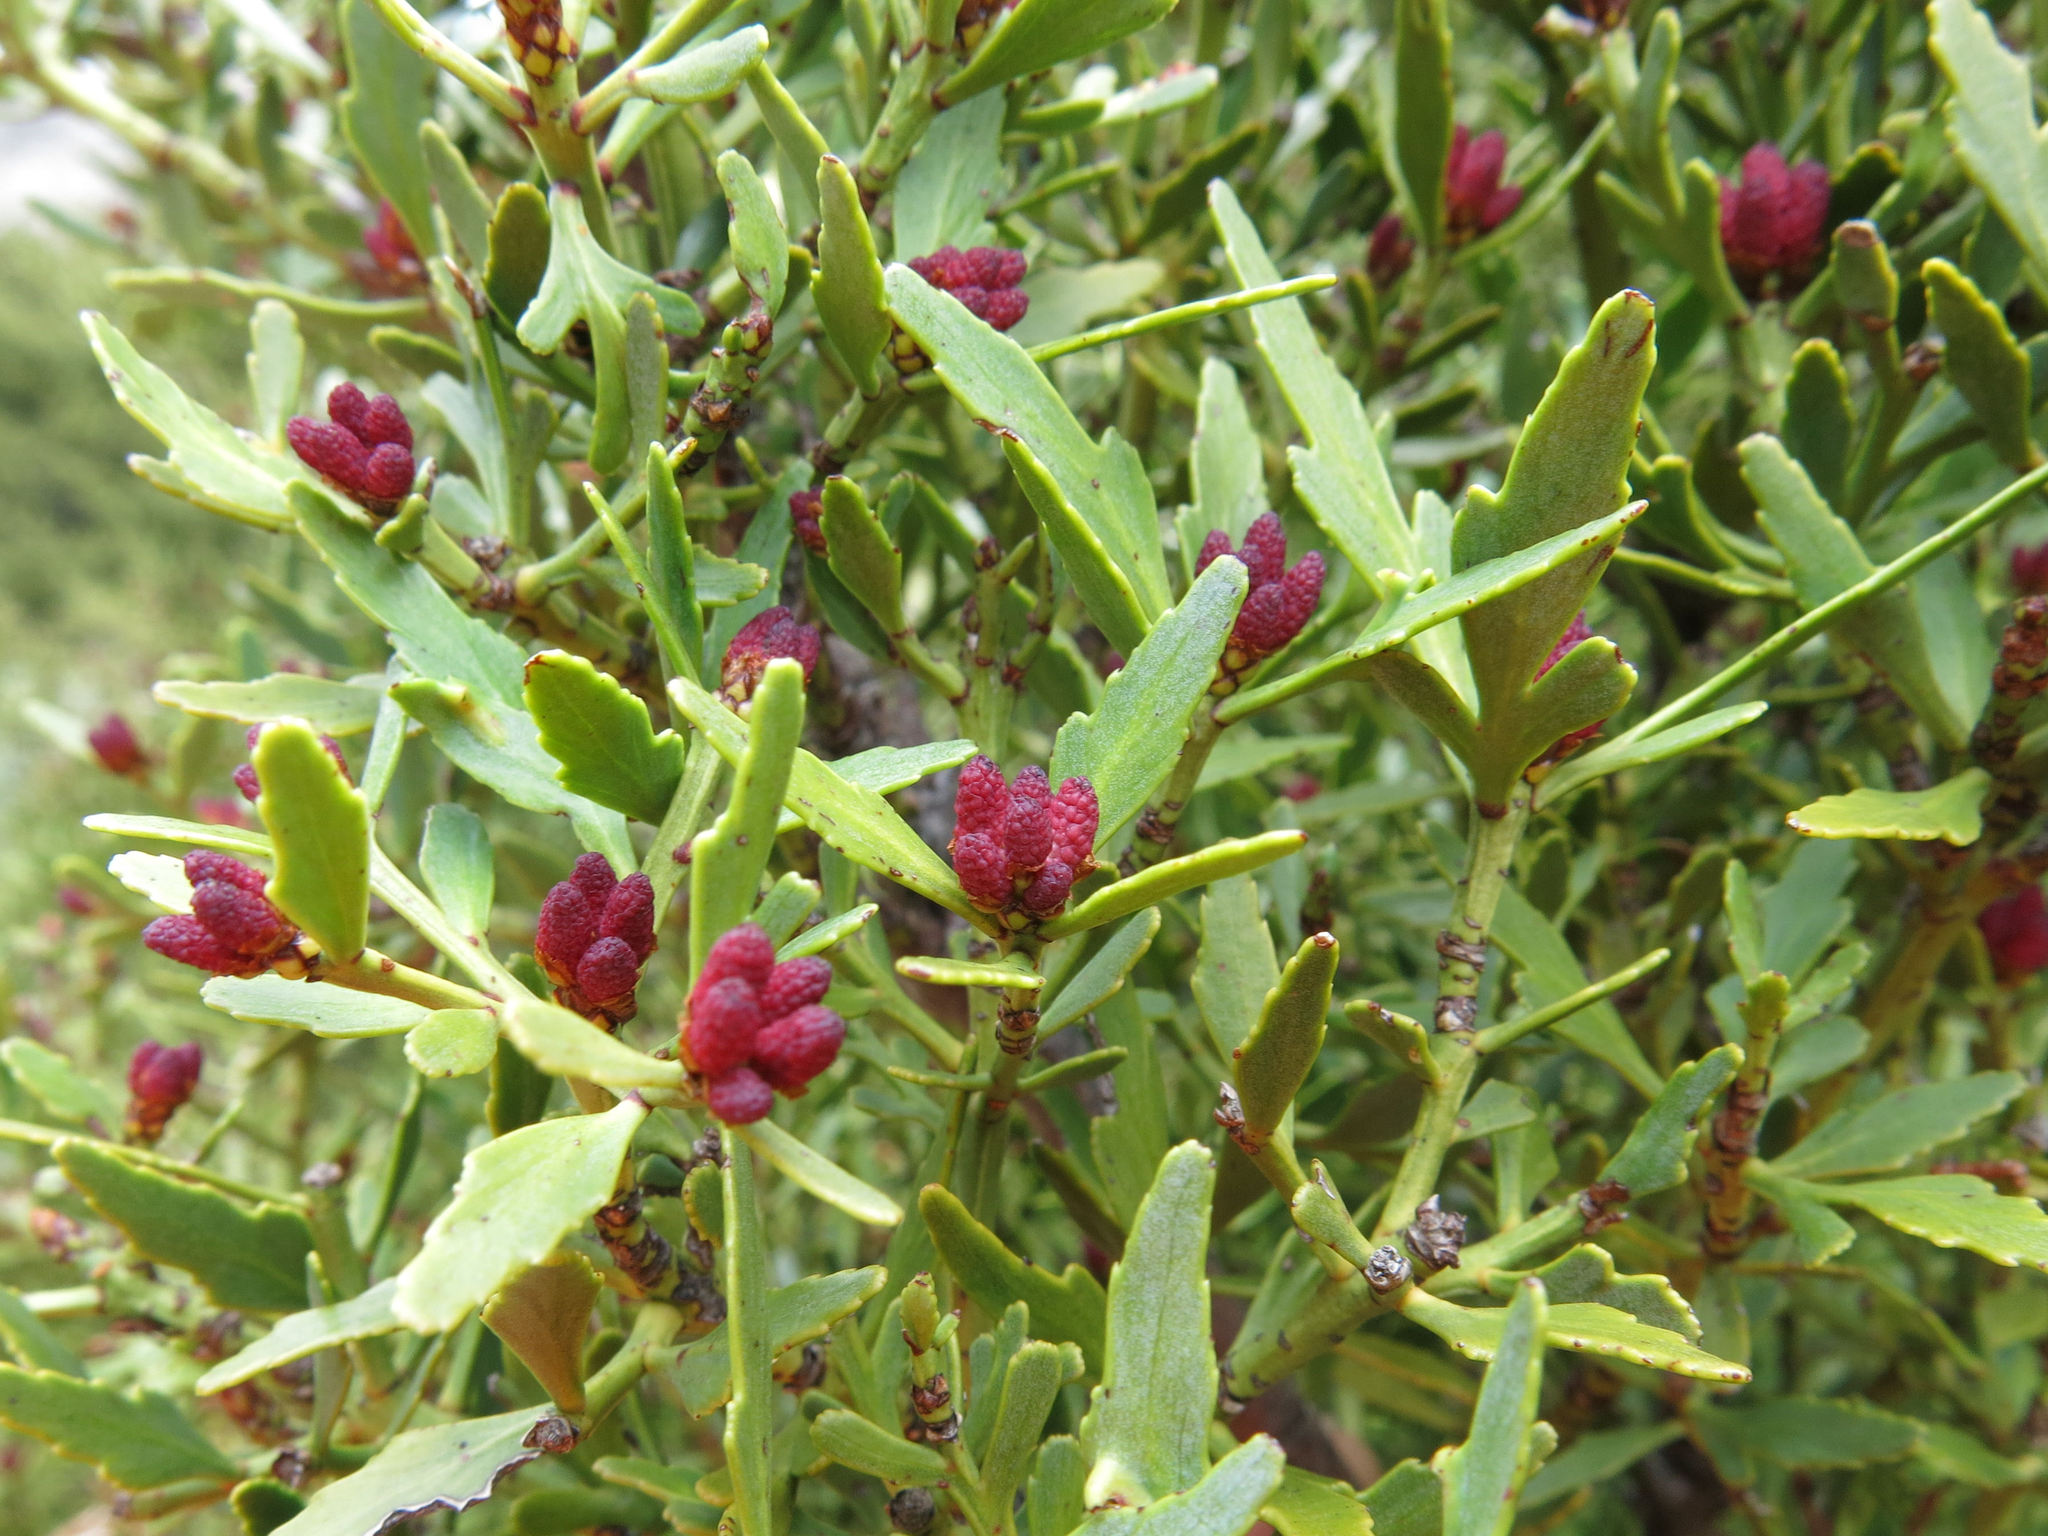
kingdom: Plantae
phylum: Tracheophyta
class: Pinopsida
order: Pinales
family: Phyllocladaceae
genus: Phyllocladus
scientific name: Phyllocladus trichomanoides
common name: Celery pine
